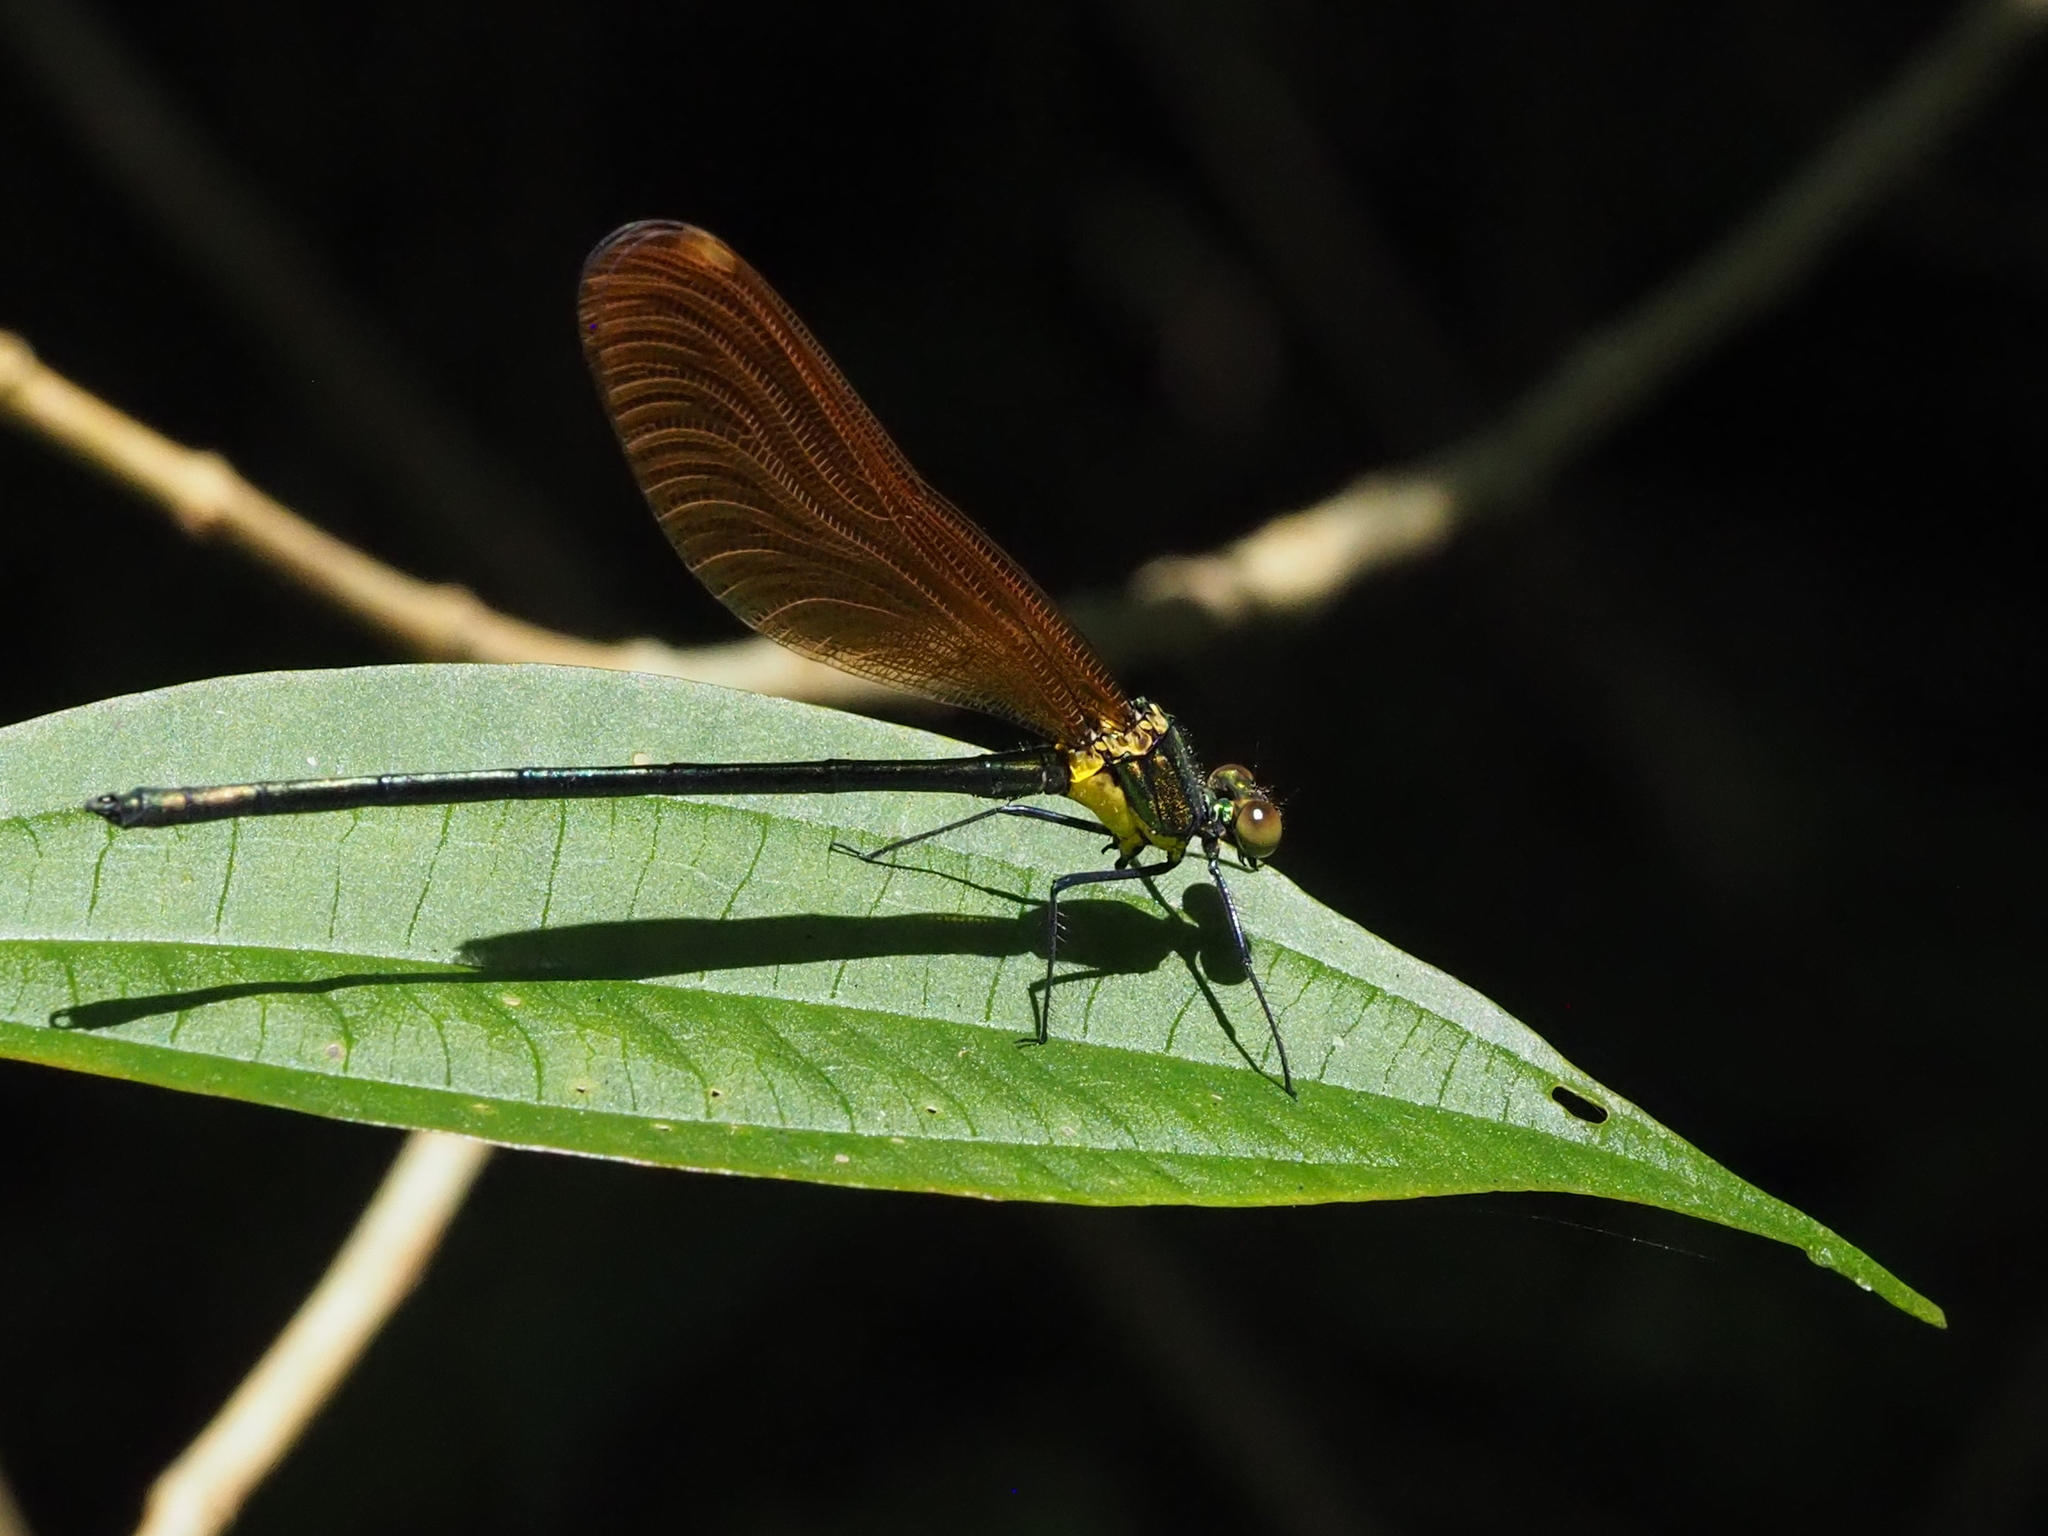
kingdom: Animalia
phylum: Arthropoda
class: Insecta
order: Odonata
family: Calopterygidae
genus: Mnais
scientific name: Mnais tenuis
